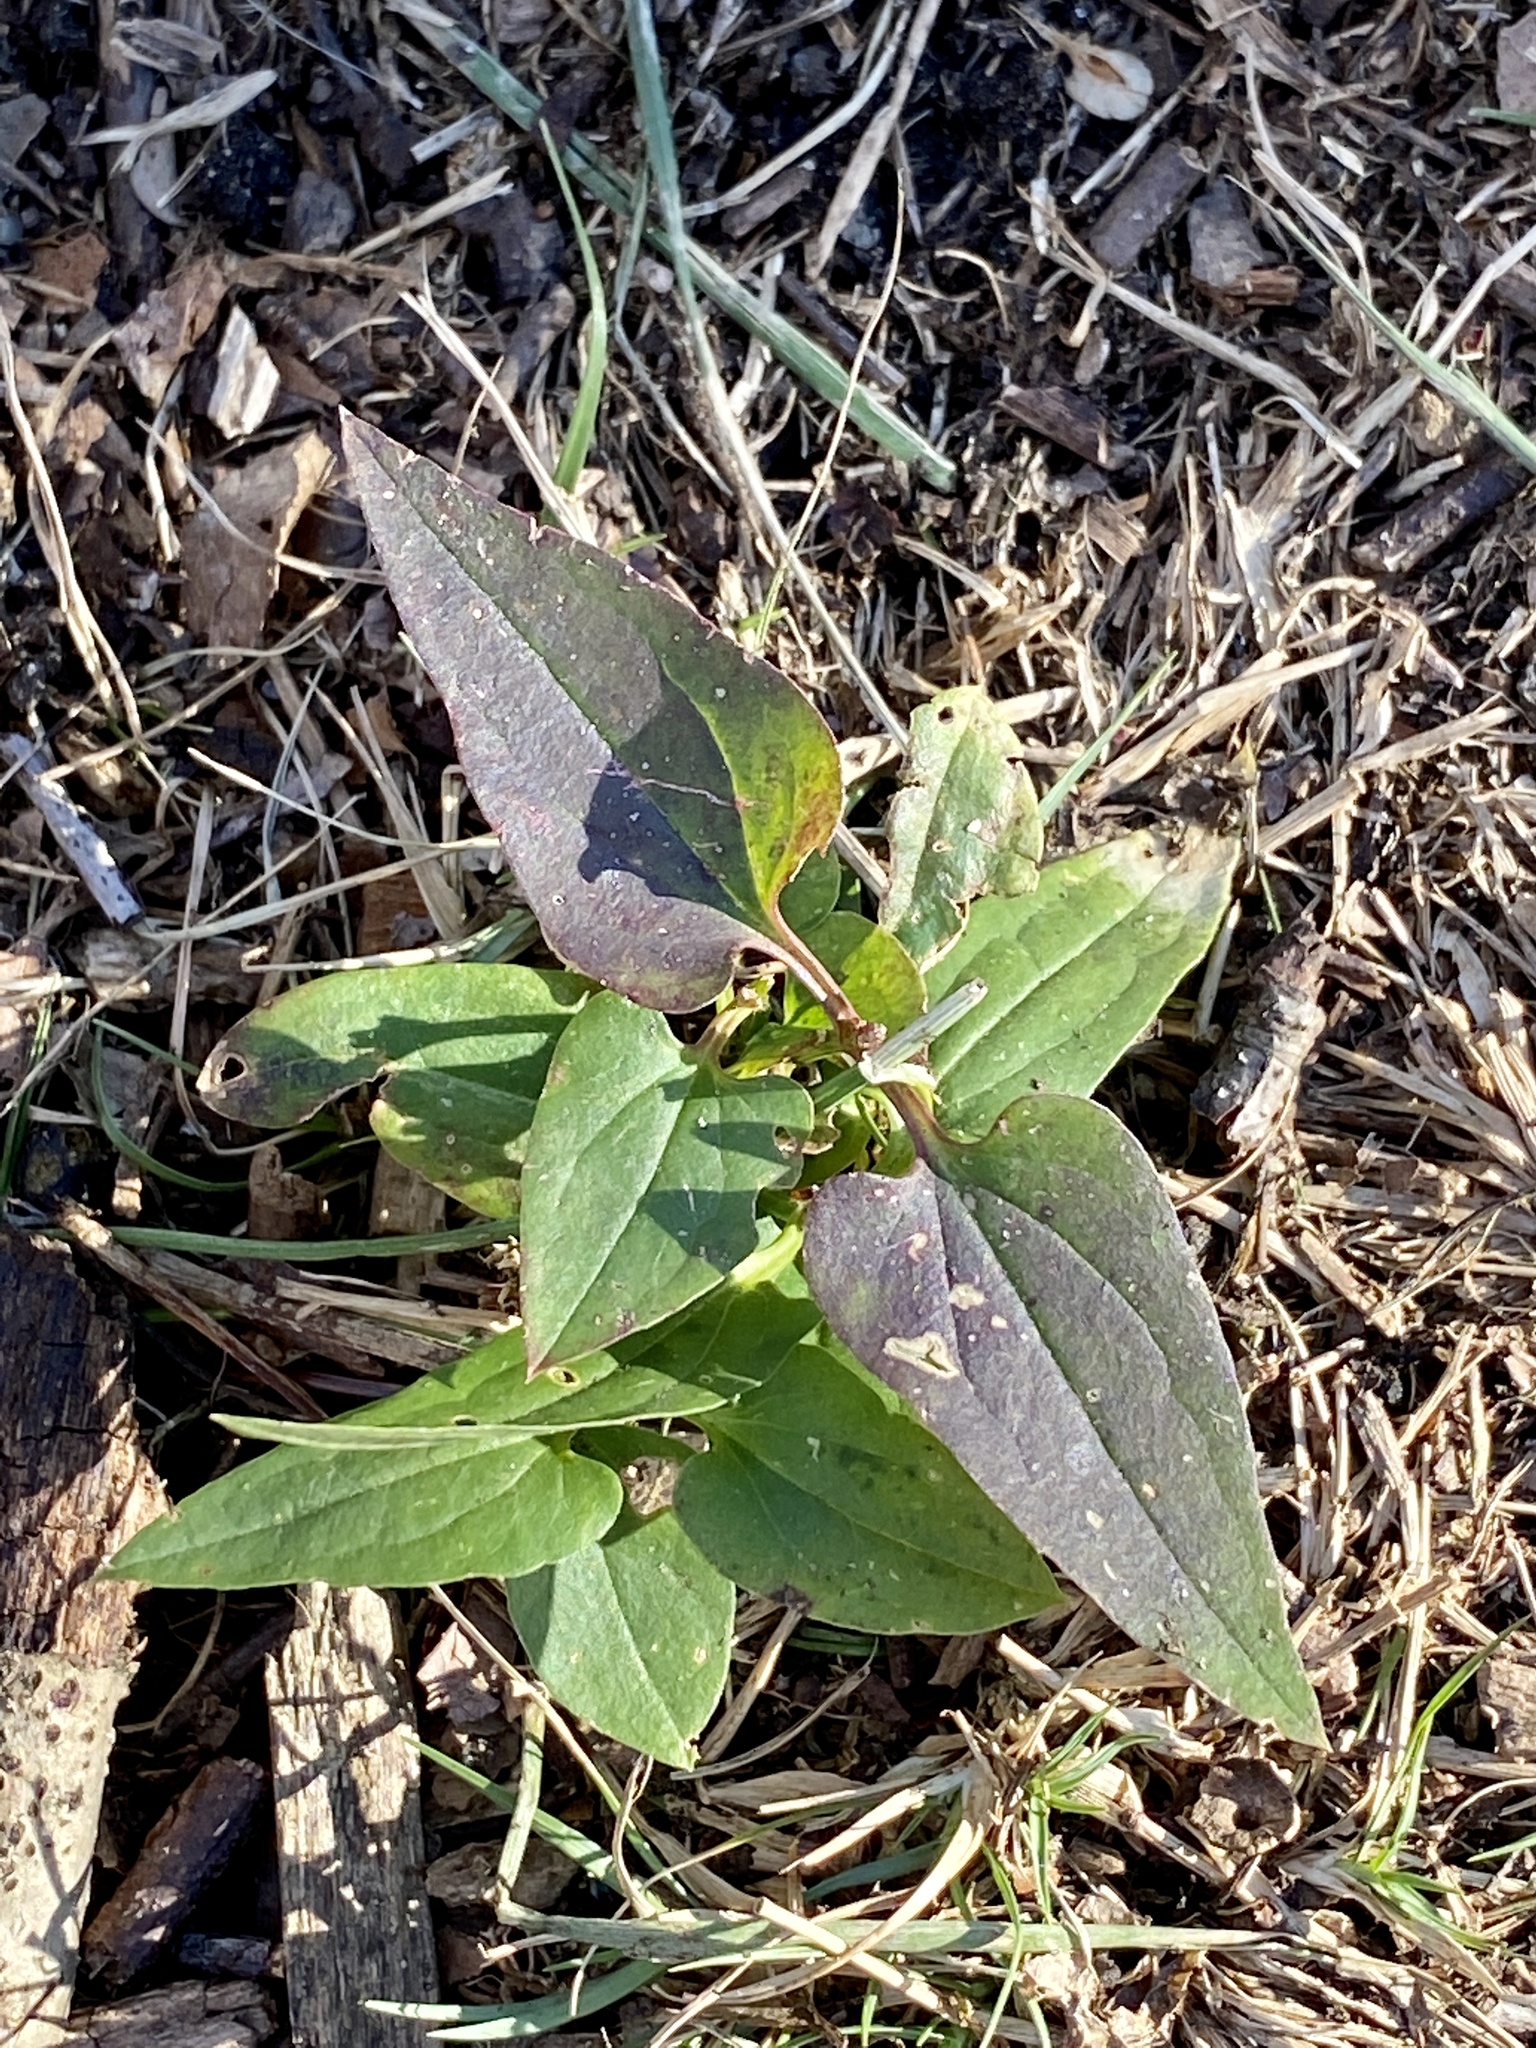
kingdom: Plantae
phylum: Tracheophyta
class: Magnoliopsida
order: Ranunculales
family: Ranunculaceae
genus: Clematis
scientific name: Clematis terniflora
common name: Sweet autumn clematis
